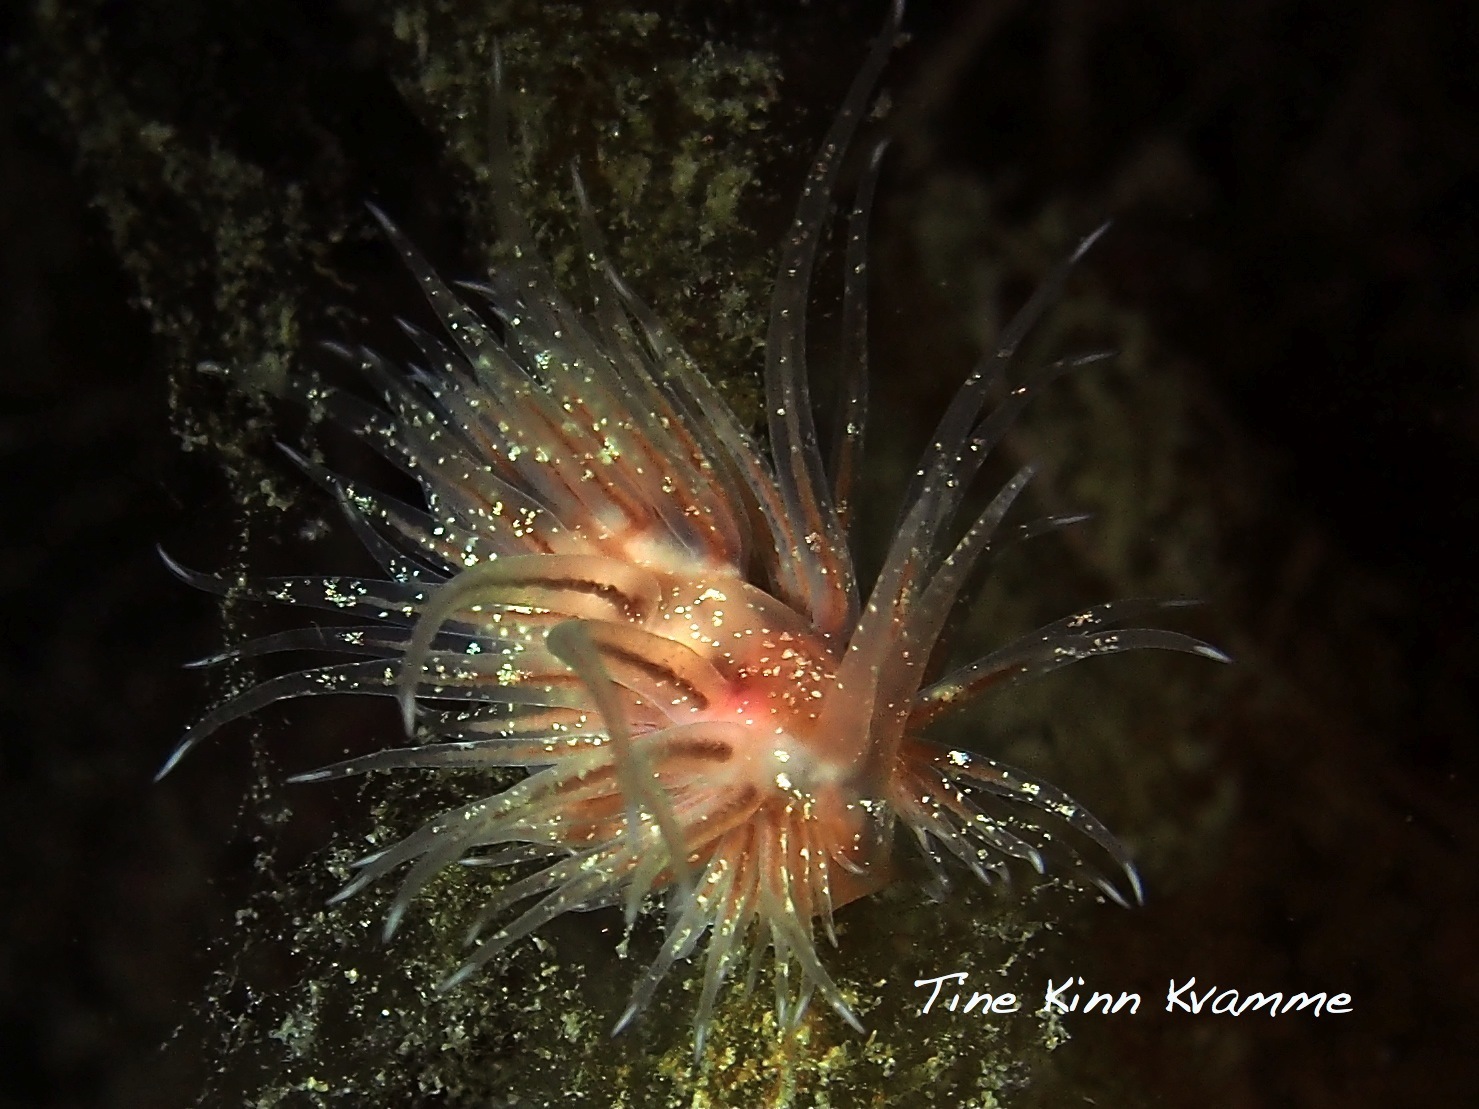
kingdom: Animalia
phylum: Mollusca
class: Gastropoda
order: Nudibranchia
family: Cumanotidae
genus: Cumanotus
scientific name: Cumanotus beaumonti
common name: Polyp aeolis
